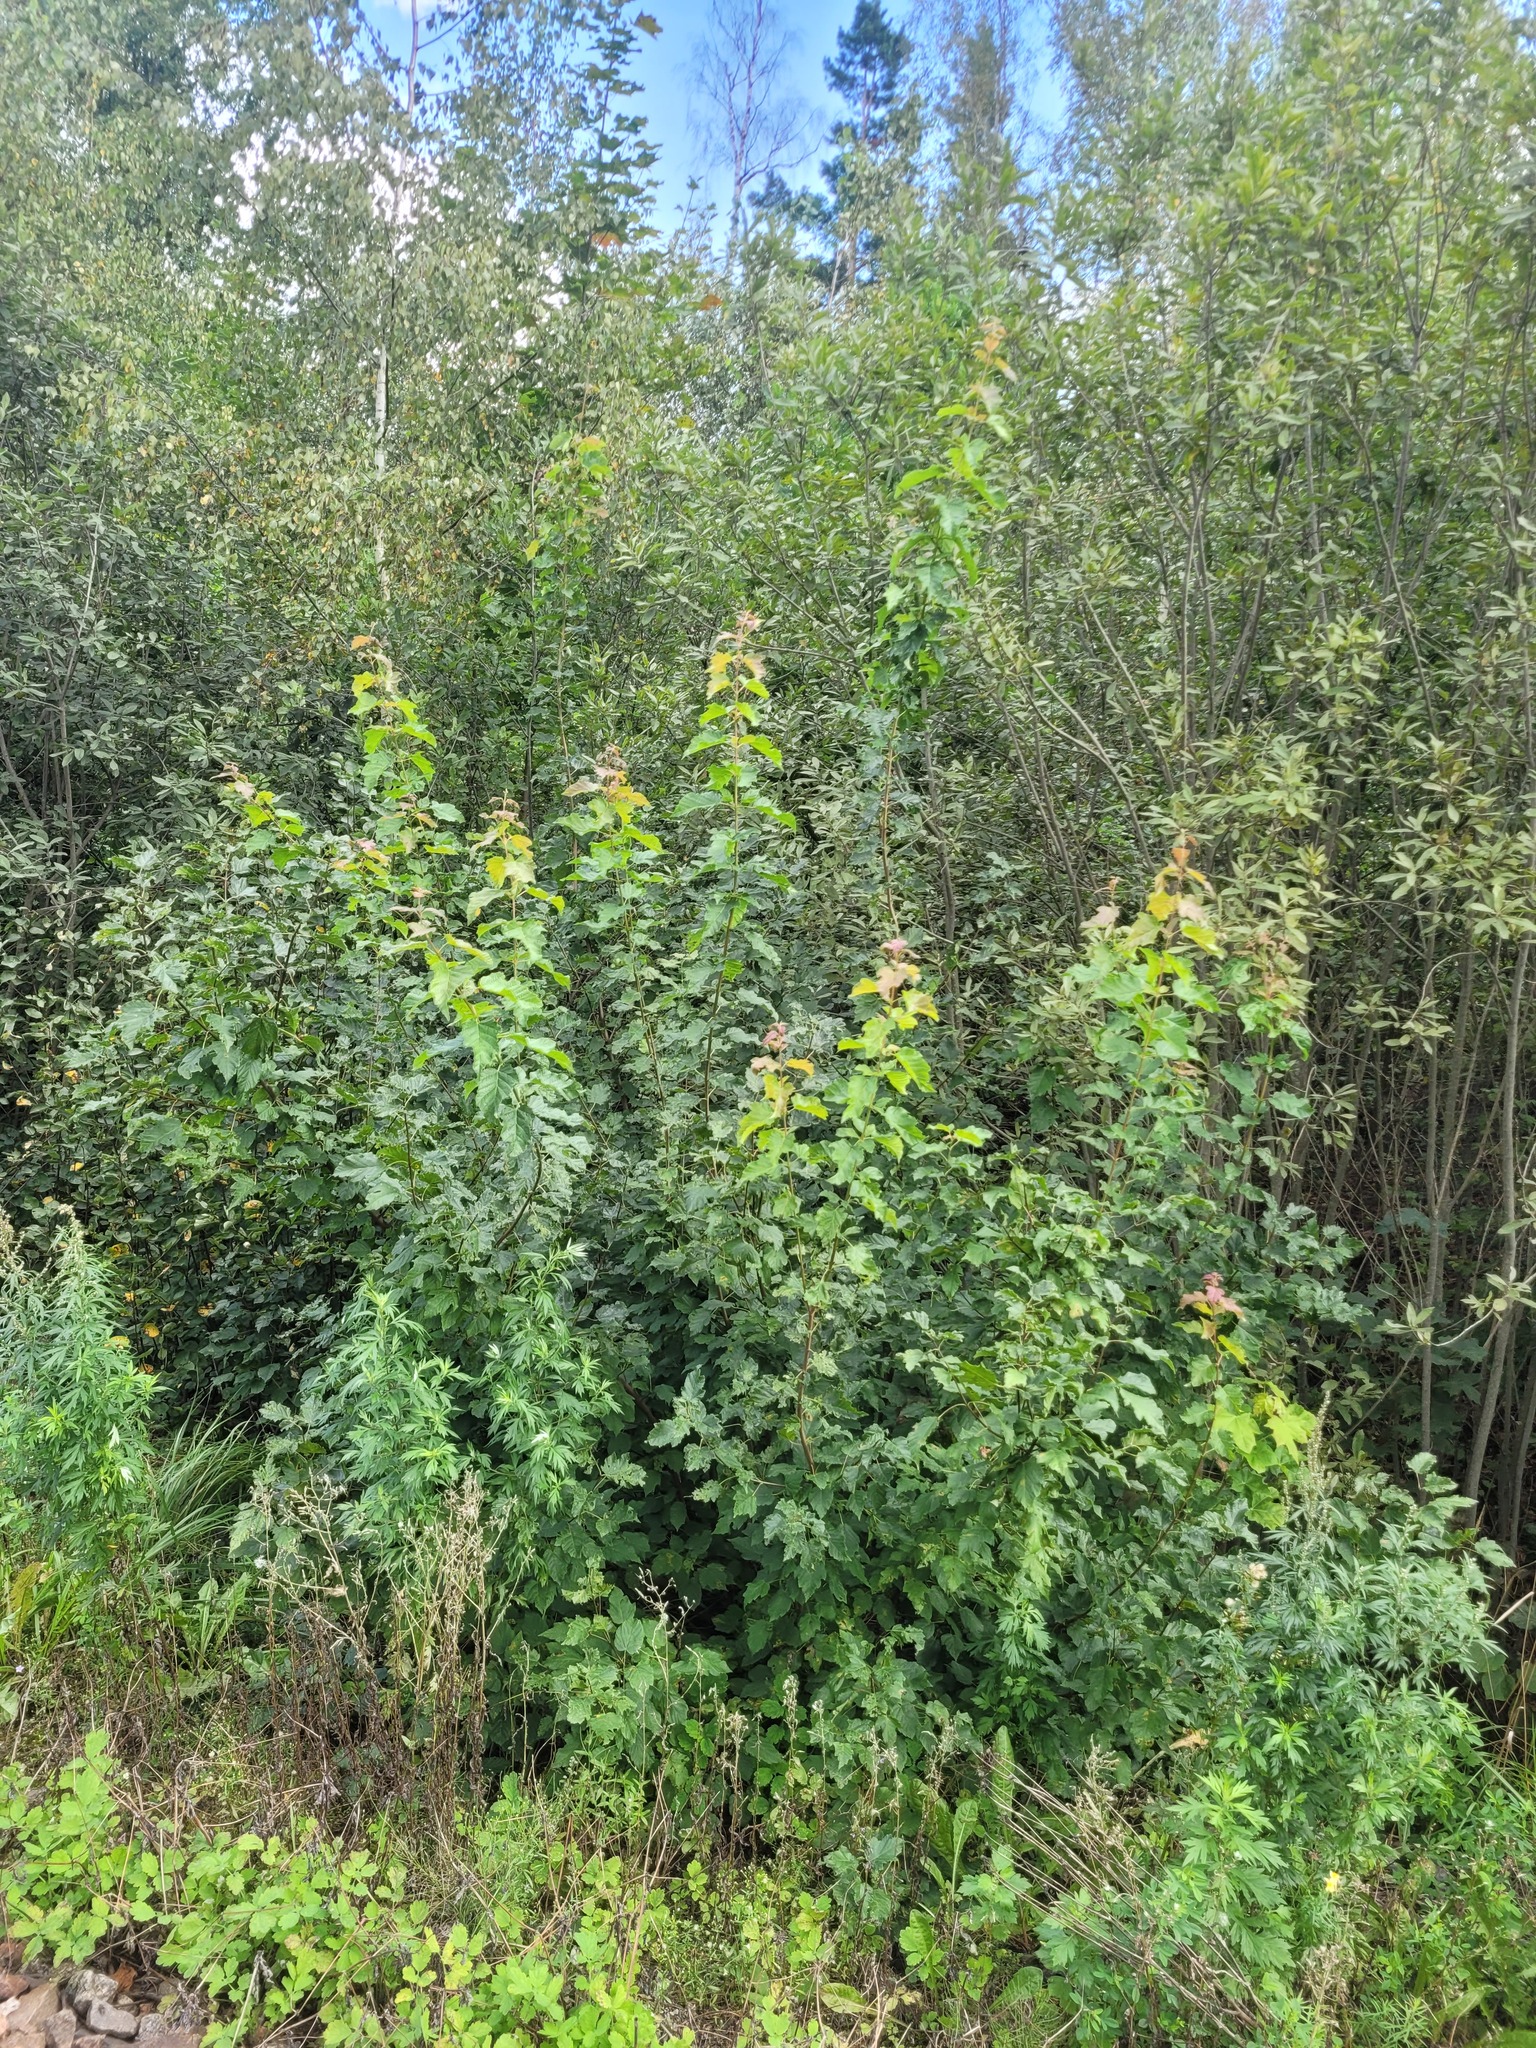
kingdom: Plantae
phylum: Tracheophyta
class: Magnoliopsida
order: Sapindales
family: Sapindaceae
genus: Acer
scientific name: Acer tataricum
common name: Tartar maple
